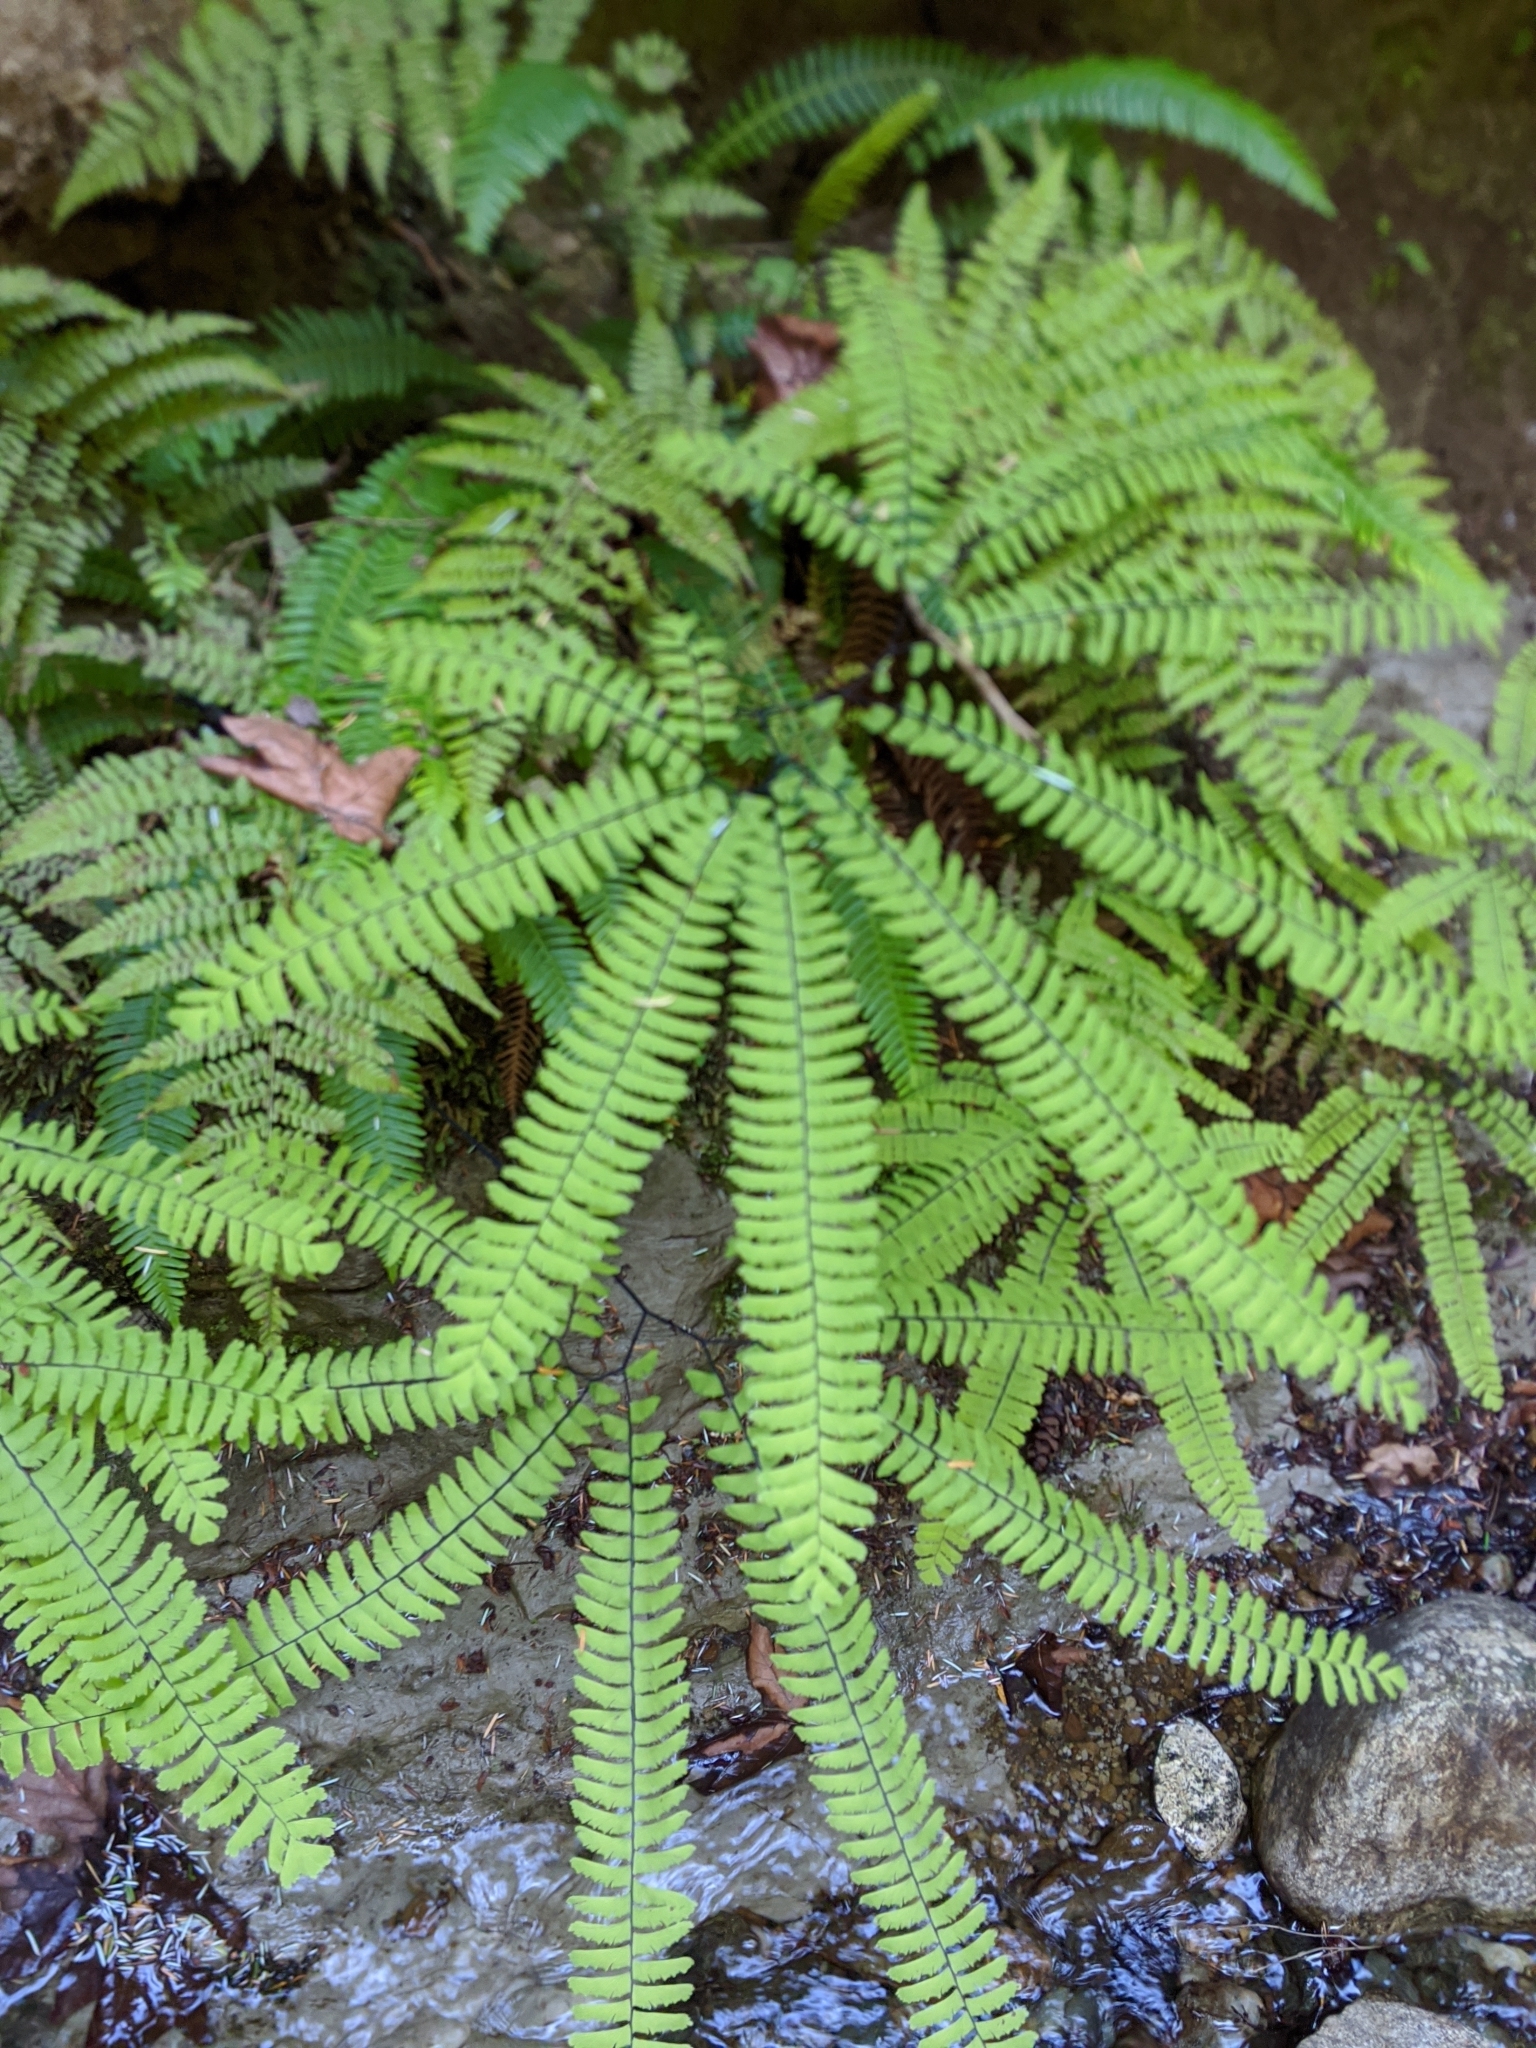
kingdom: Plantae
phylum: Tracheophyta
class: Polypodiopsida
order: Polypodiales
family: Pteridaceae
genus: Adiantum
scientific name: Adiantum aleuticum
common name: Aleutian maidenhair fern
